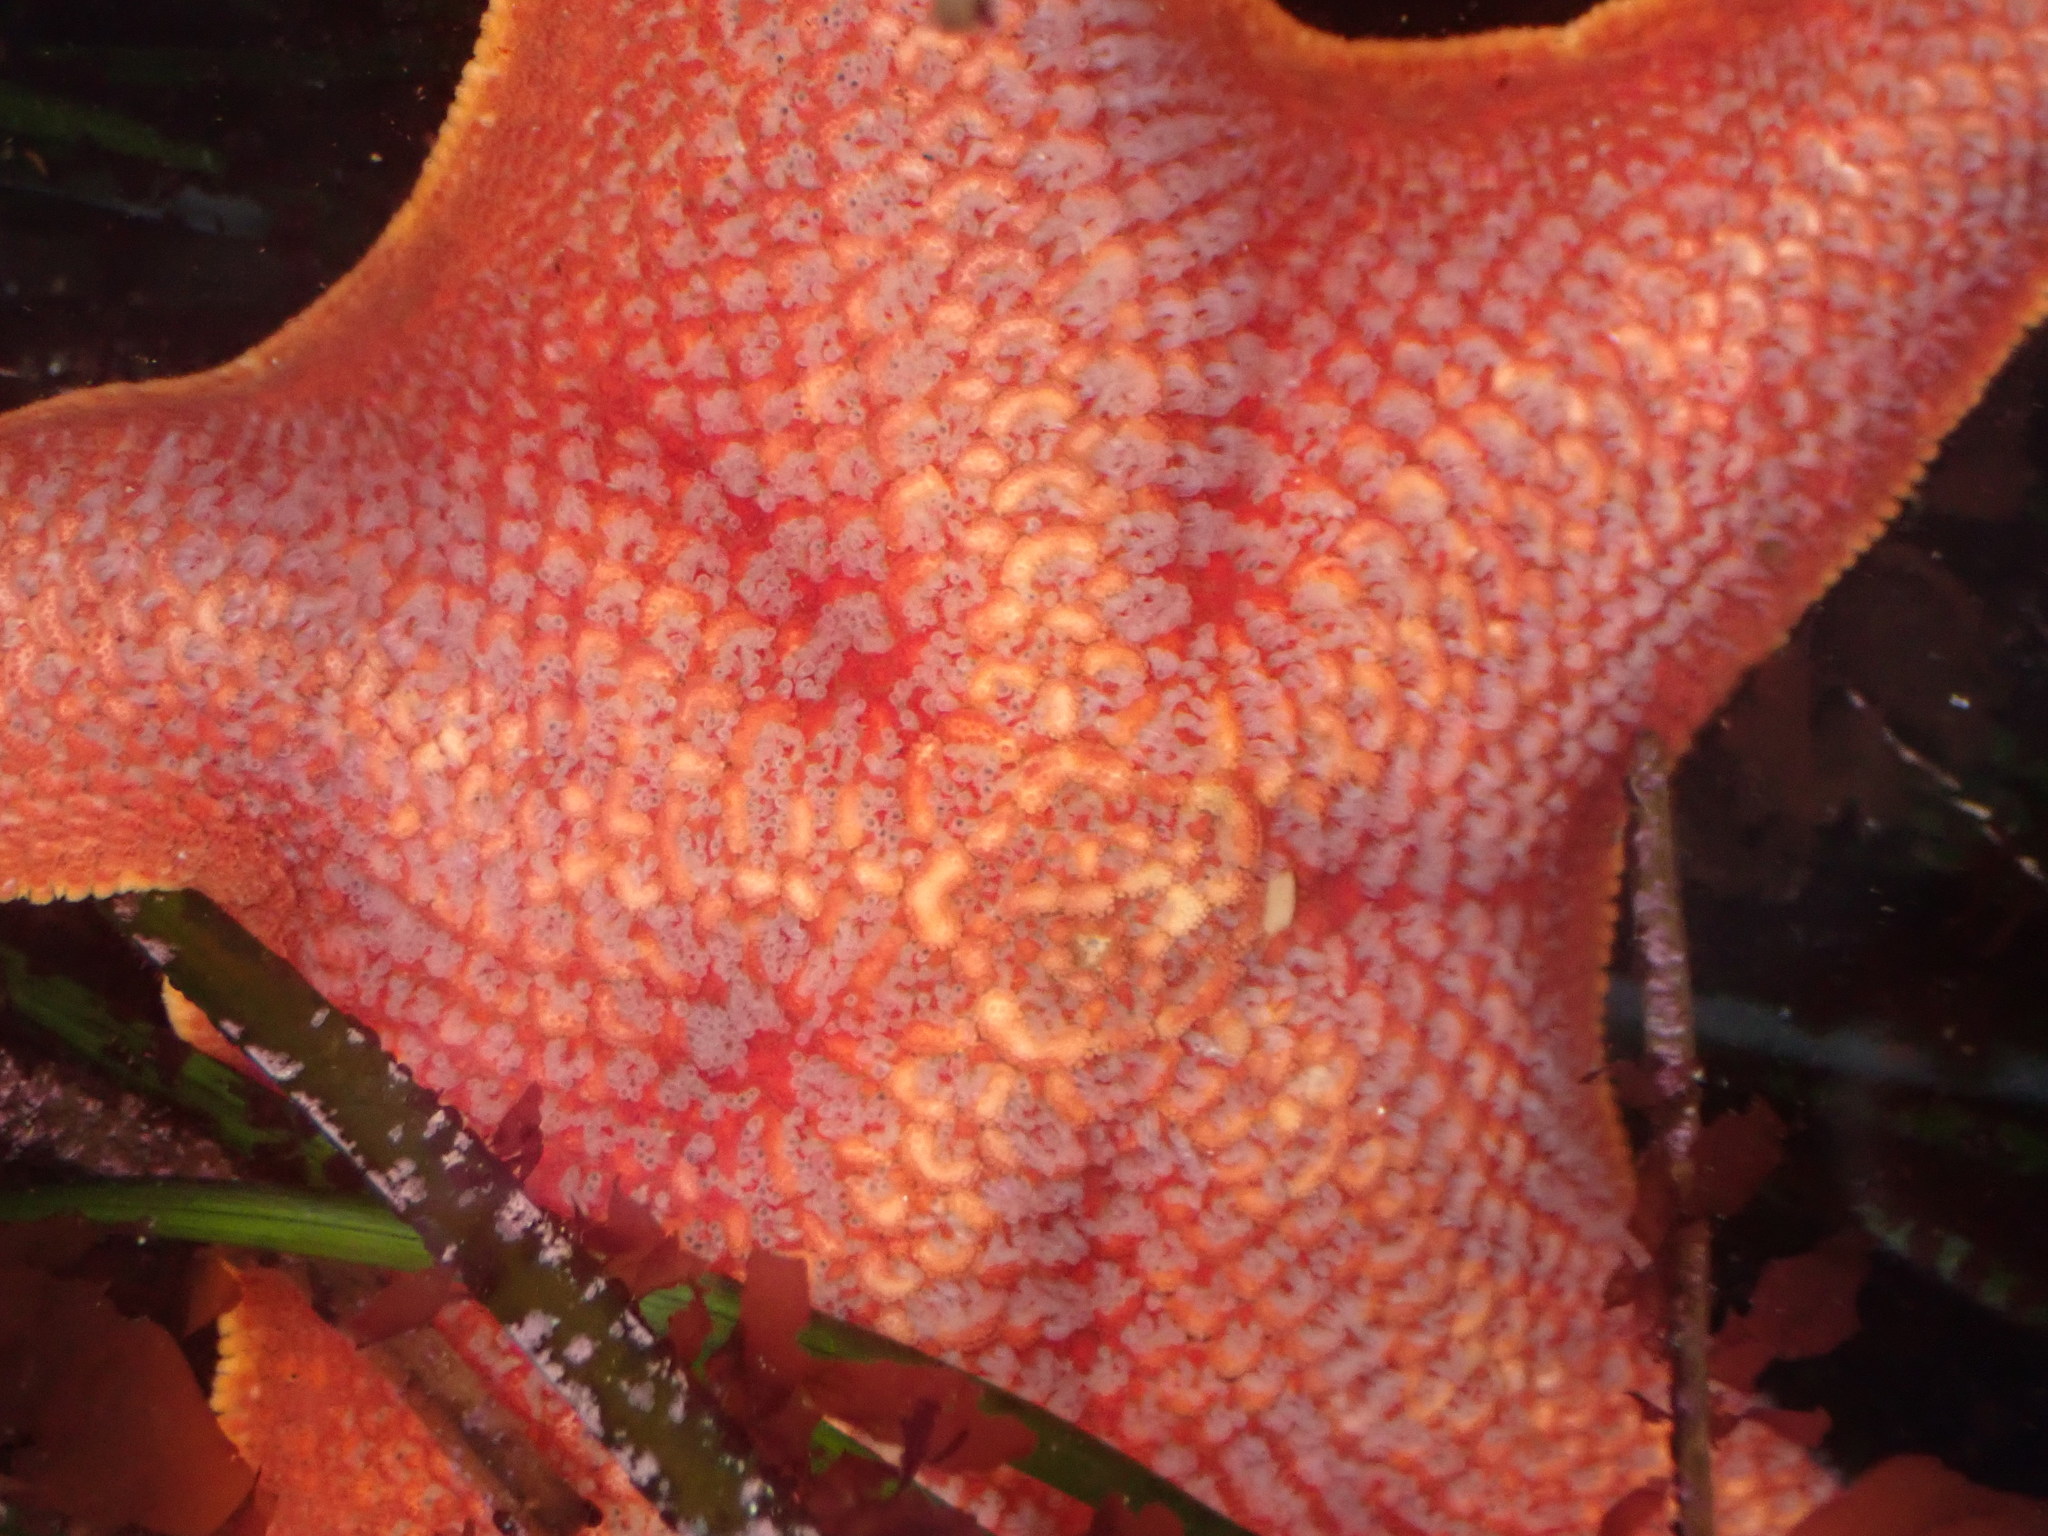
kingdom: Animalia
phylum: Echinodermata
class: Asteroidea
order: Valvatida
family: Asterinidae
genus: Patiria
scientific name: Patiria miniata
